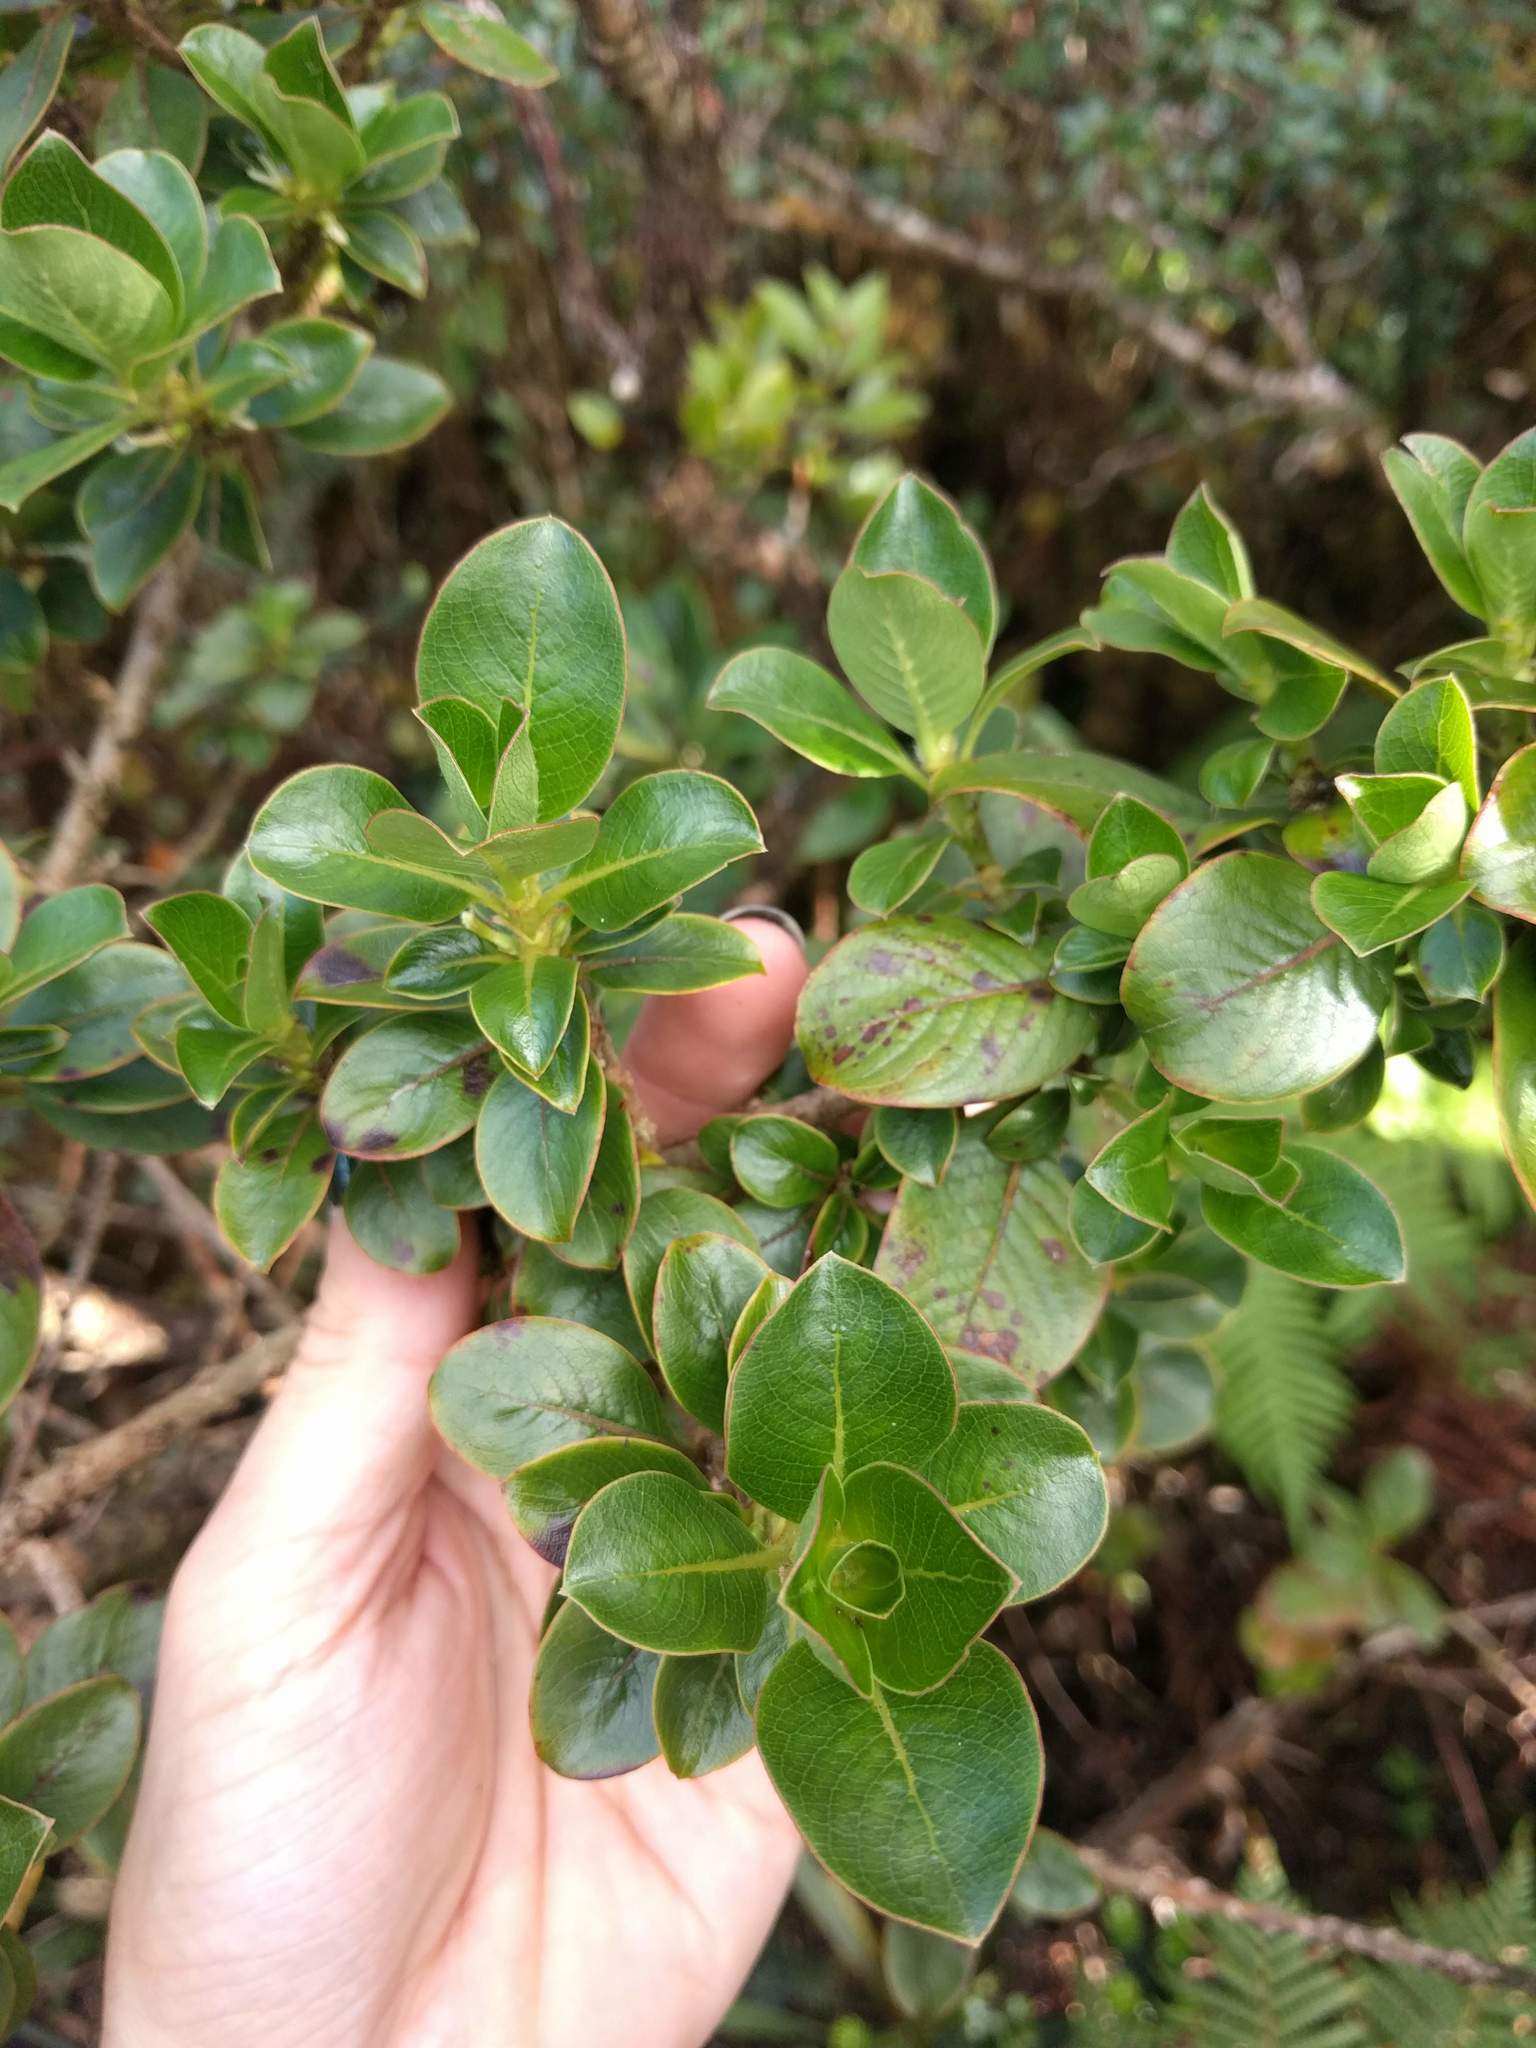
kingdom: Plantae
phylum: Tracheophyta
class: Magnoliopsida
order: Gentianales
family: Rubiaceae
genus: Coprosma
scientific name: Coprosma ochracea
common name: Maui mirrorplant
